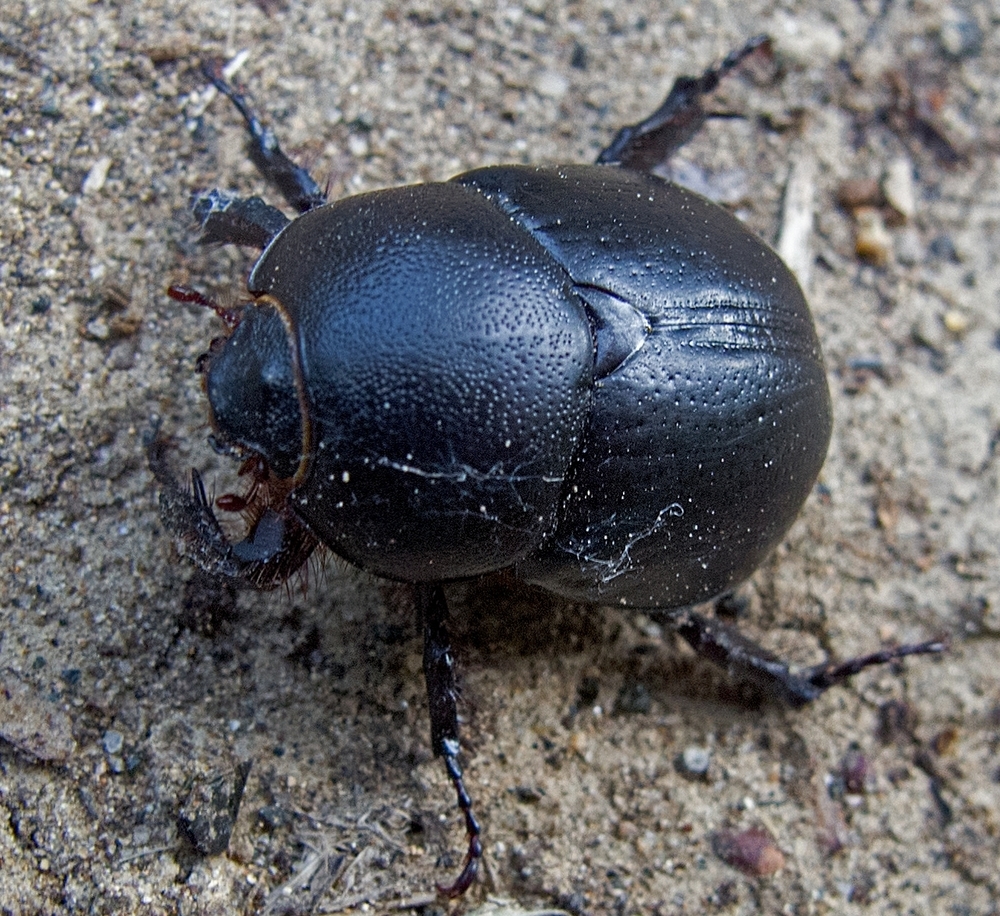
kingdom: Animalia
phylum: Arthropoda
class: Insecta
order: Coleoptera
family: Scarabaeidae
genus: Pentodon
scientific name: Pentodon idiota
